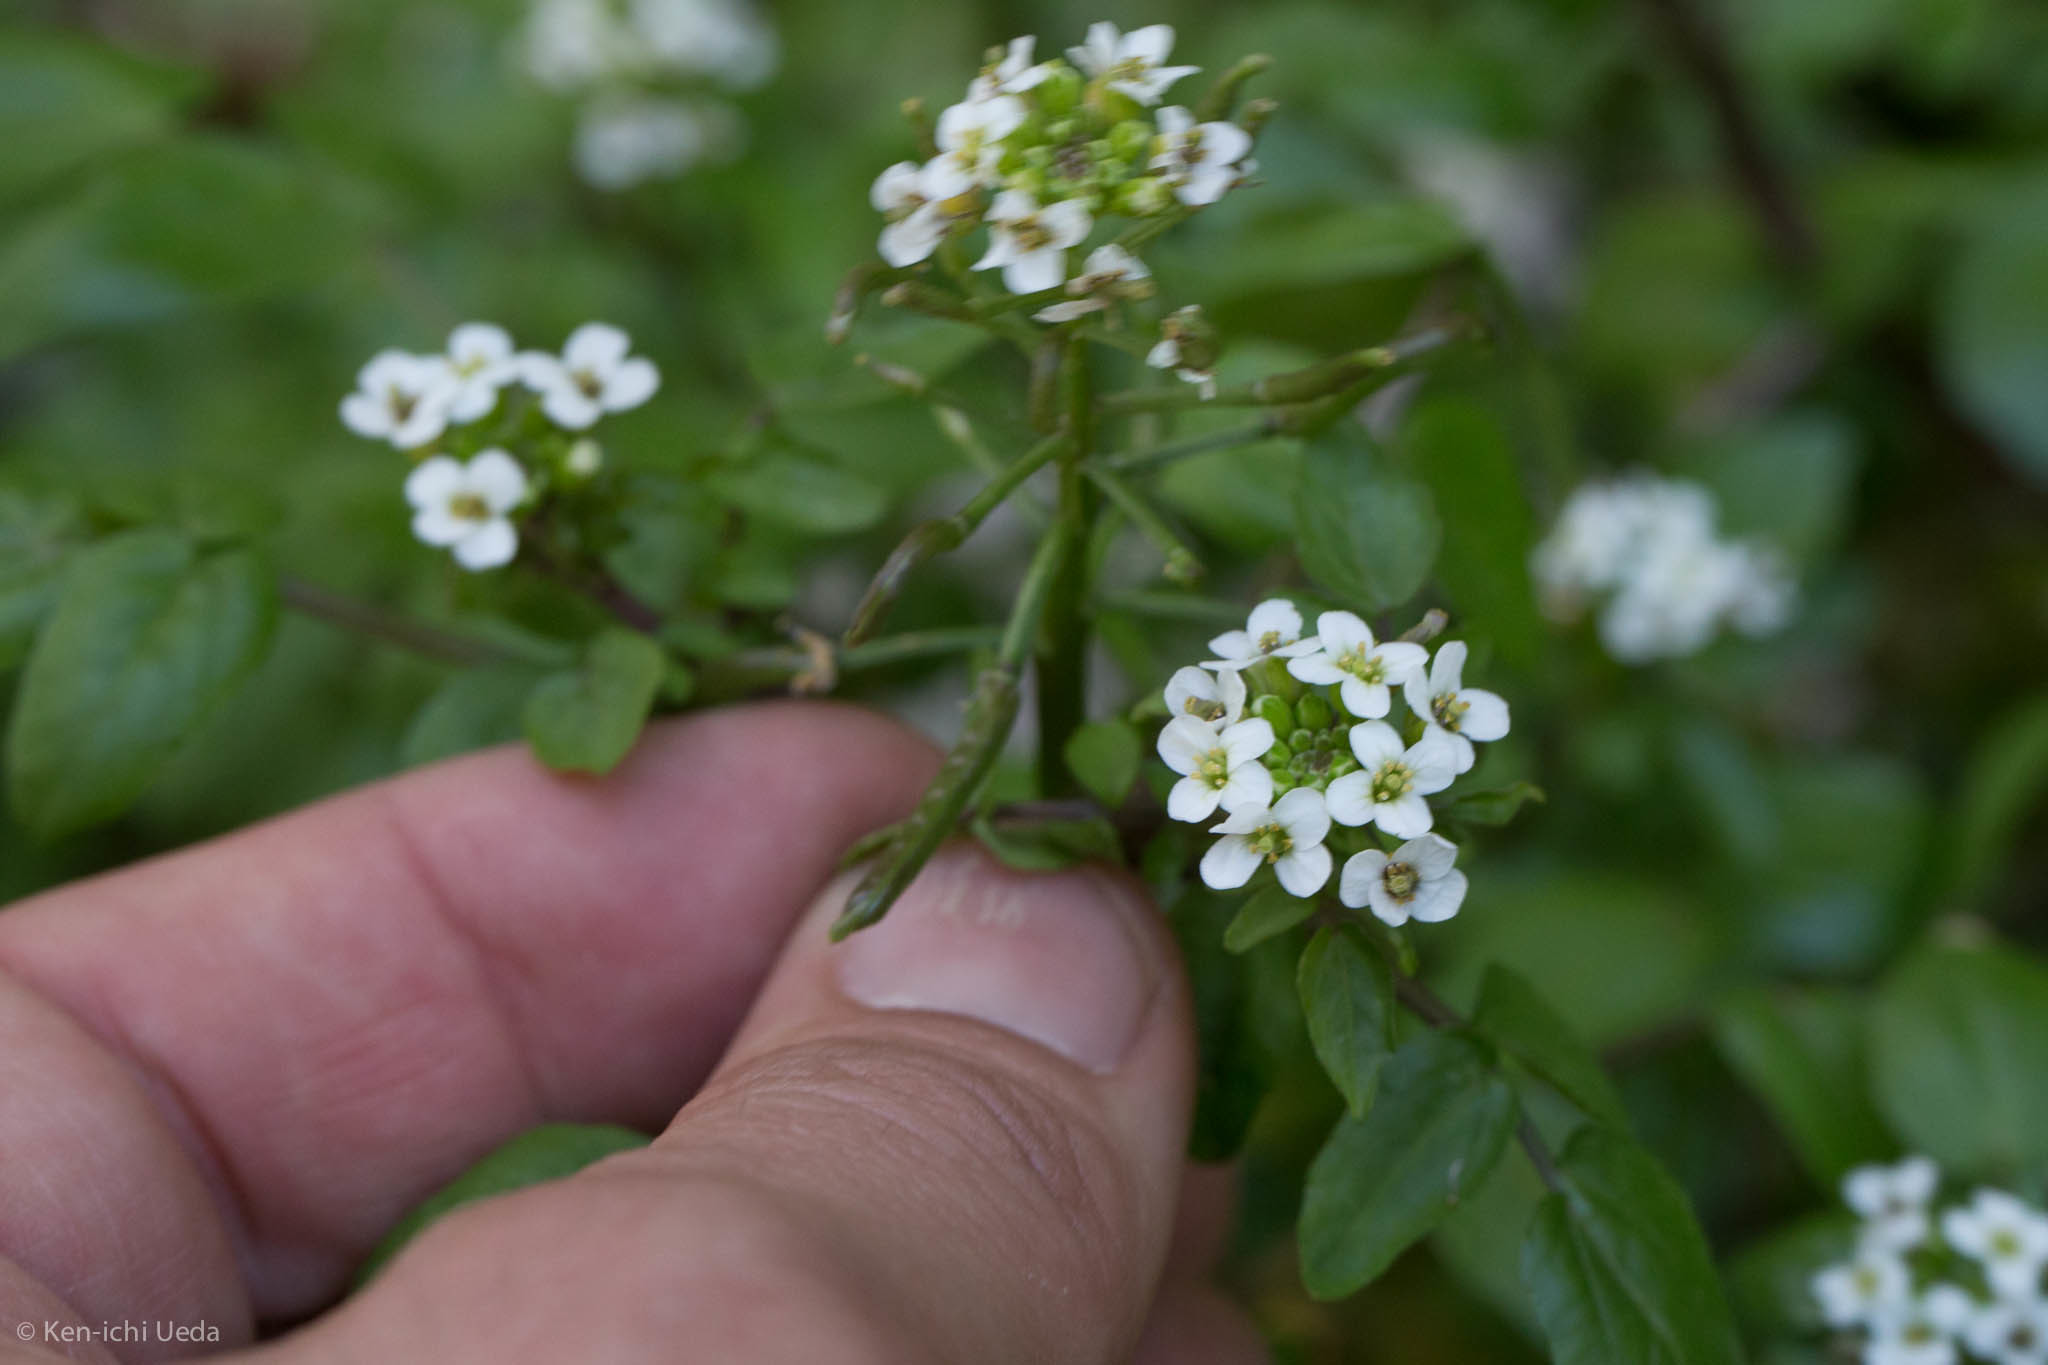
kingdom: Plantae
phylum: Tracheophyta
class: Magnoliopsida
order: Brassicales
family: Brassicaceae
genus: Nasturtium
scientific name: Nasturtium officinale
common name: Watercress
